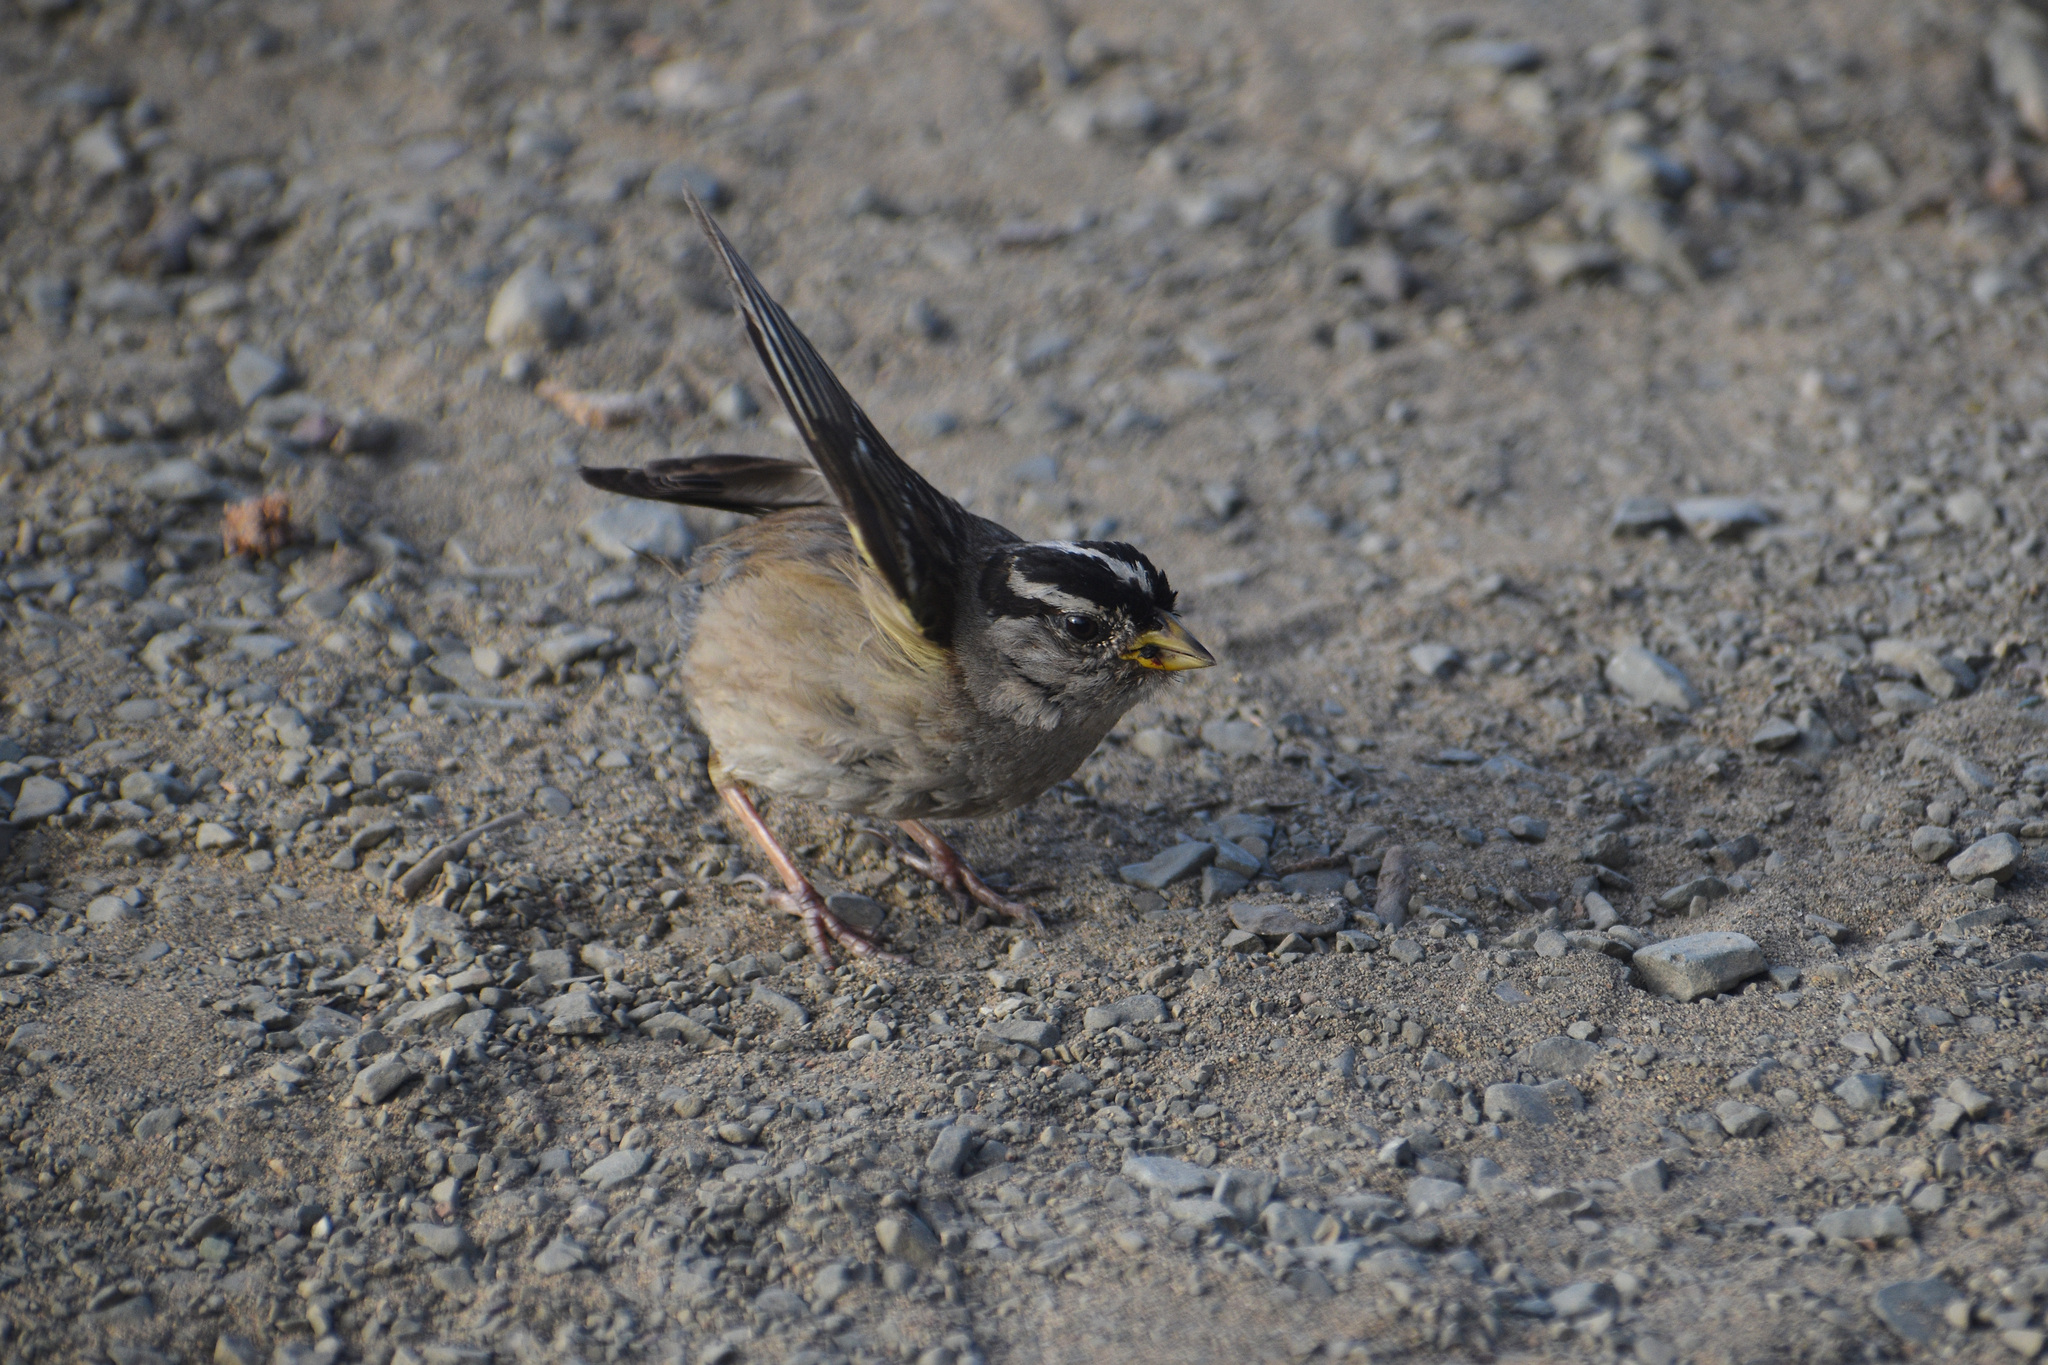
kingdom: Animalia
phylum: Chordata
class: Aves
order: Passeriformes
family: Passerellidae
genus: Zonotrichia
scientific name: Zonotrichia leucophrys
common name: White-crowned sparrow
